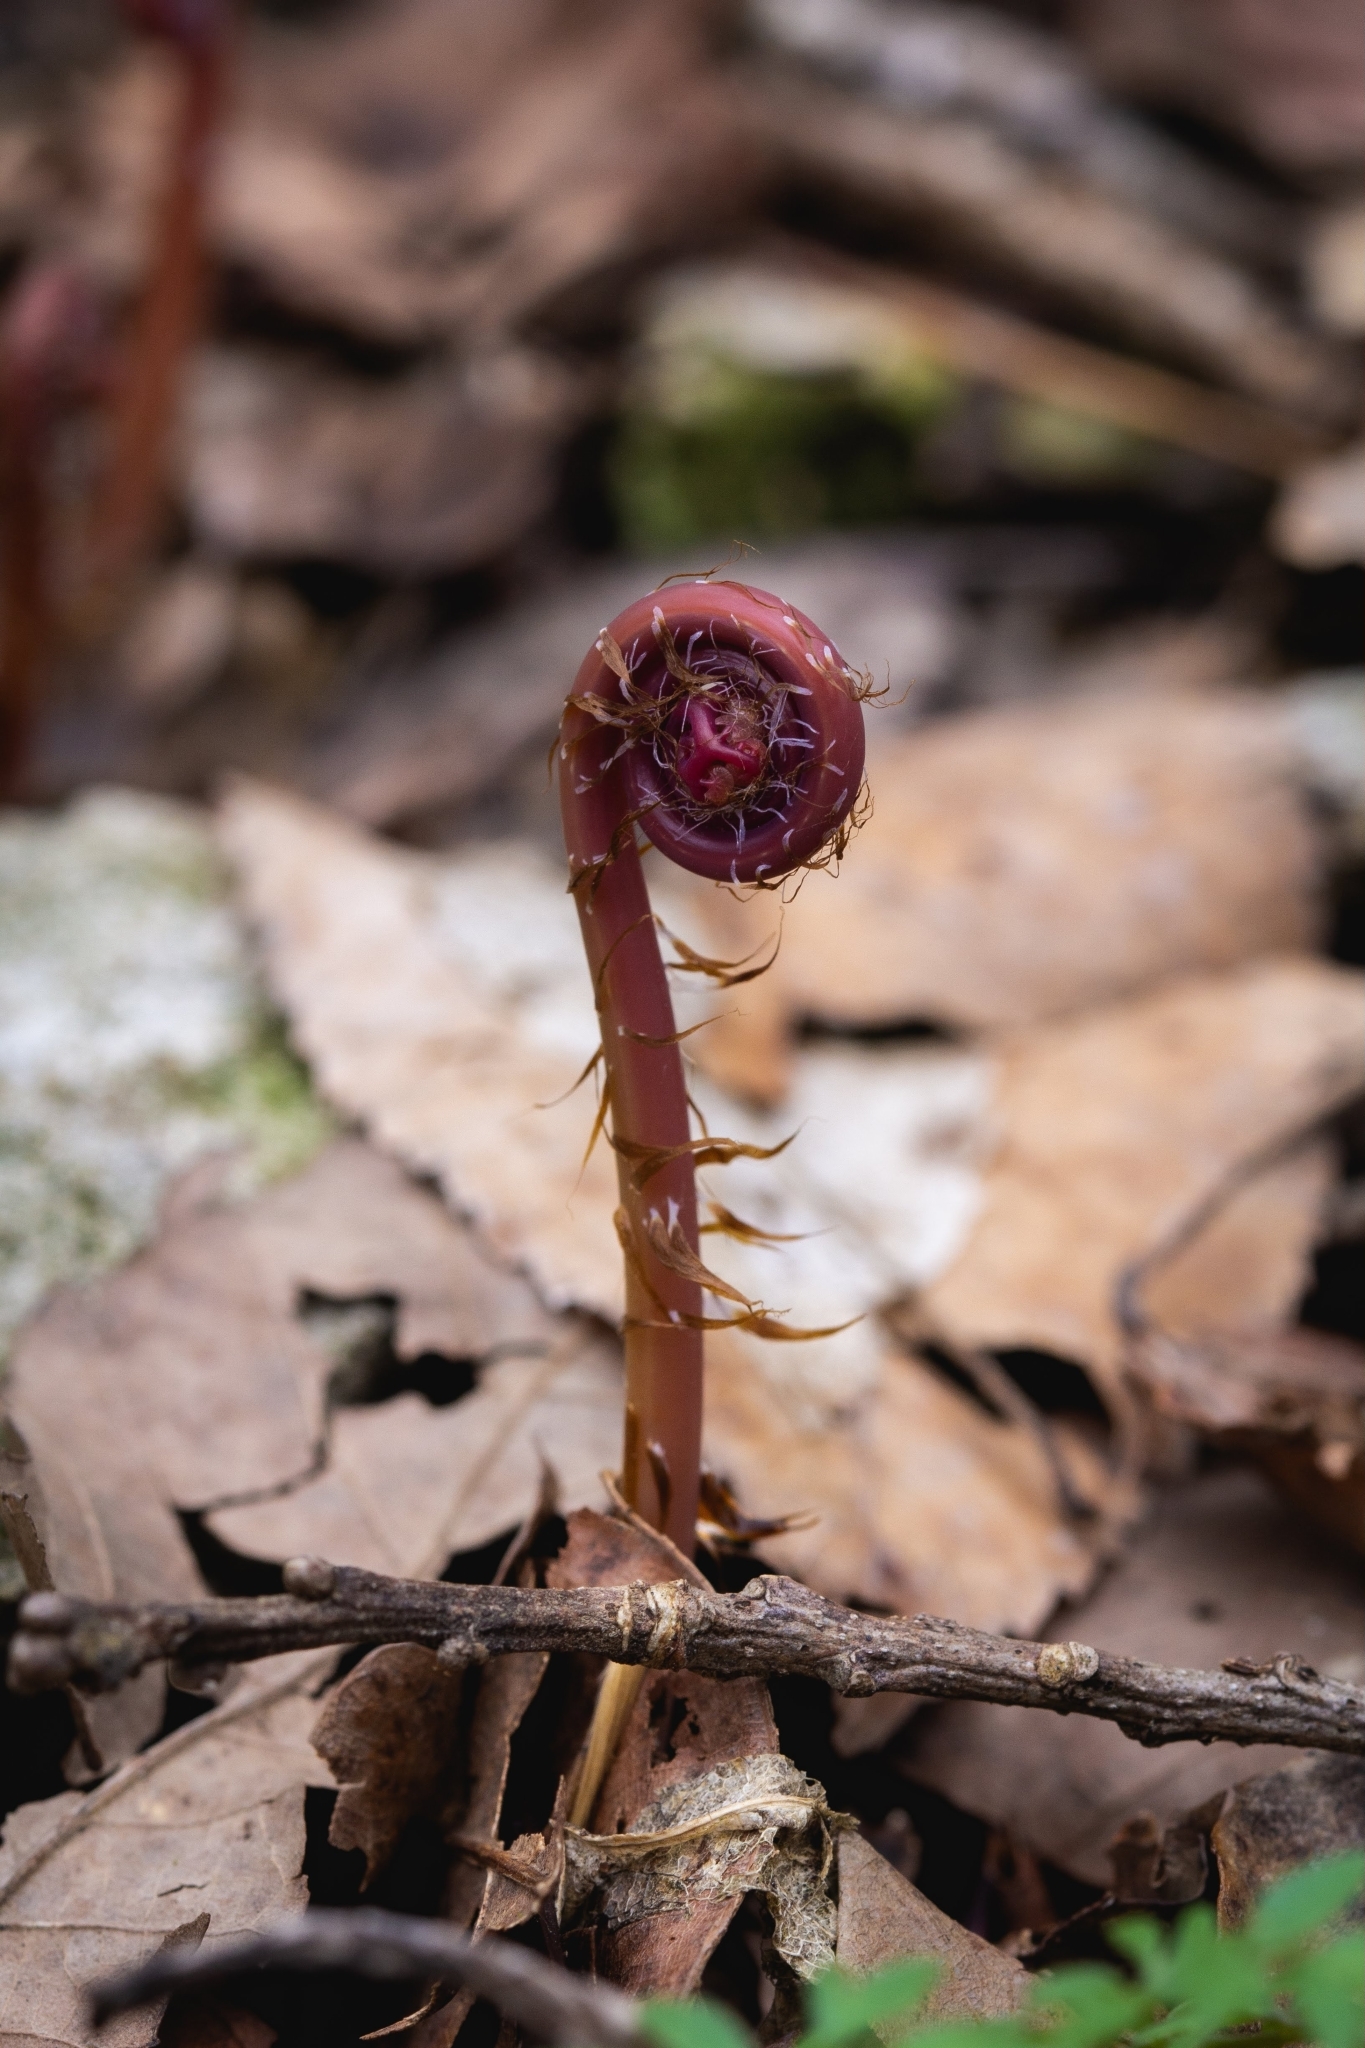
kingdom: Plantae
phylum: Tracheophyta
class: Polypodiopsida
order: Polypodiales
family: Pteridaceae
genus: Adiantum
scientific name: Adiantum pedatum
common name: Five-finger fern
